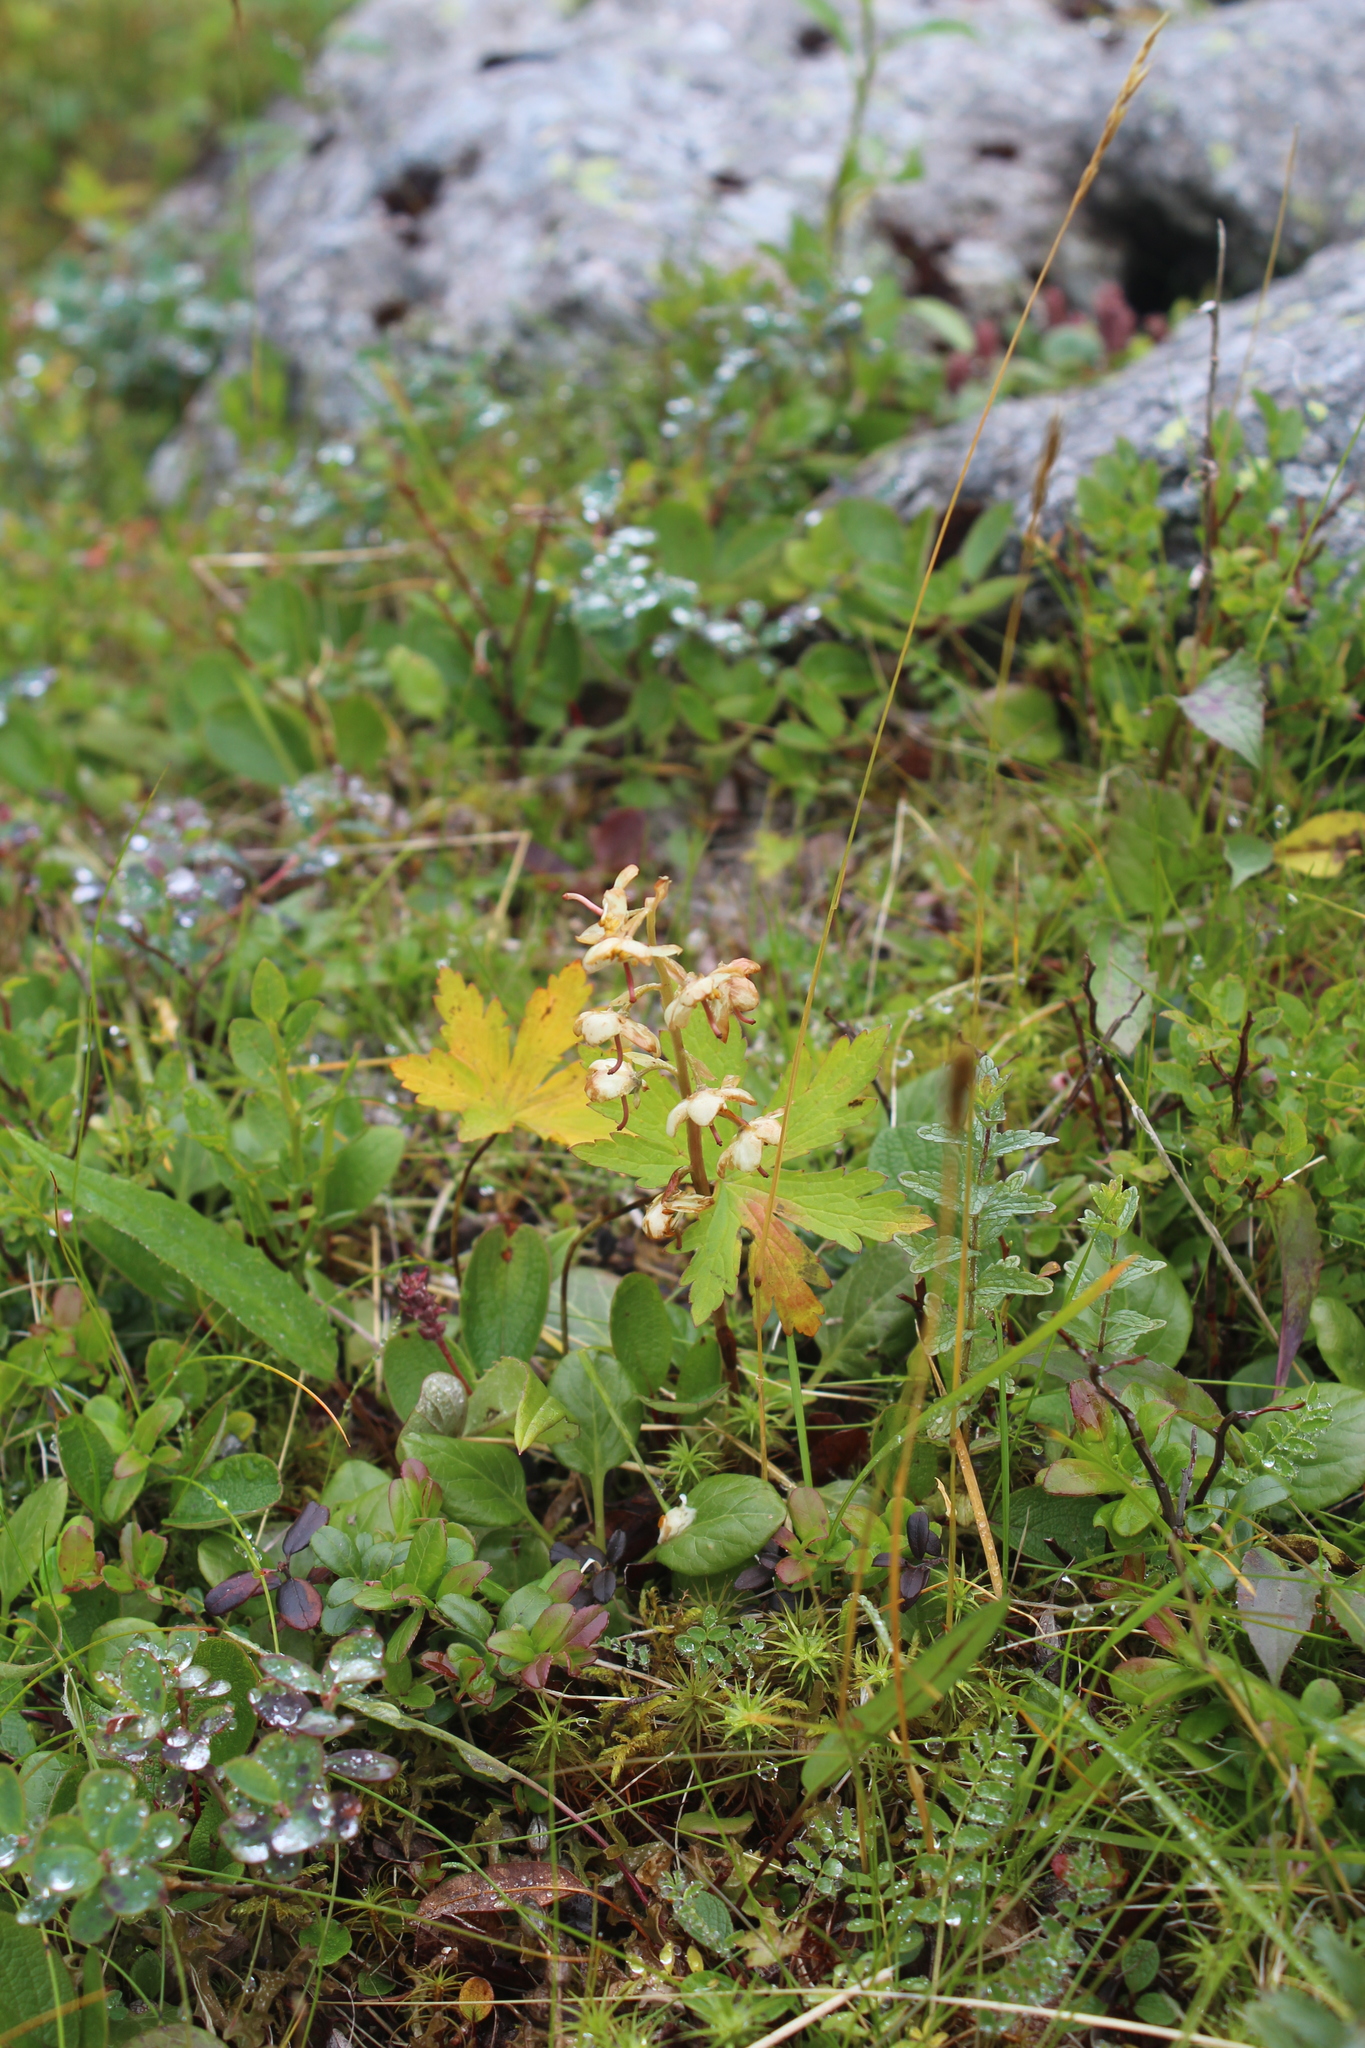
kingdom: Plantae
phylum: Tracheophyta
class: Magnoliopsida
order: Ericales
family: Ericaceae
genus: Pyrola
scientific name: Pyrola rotundifolia
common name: Round-leaved wintergreen
